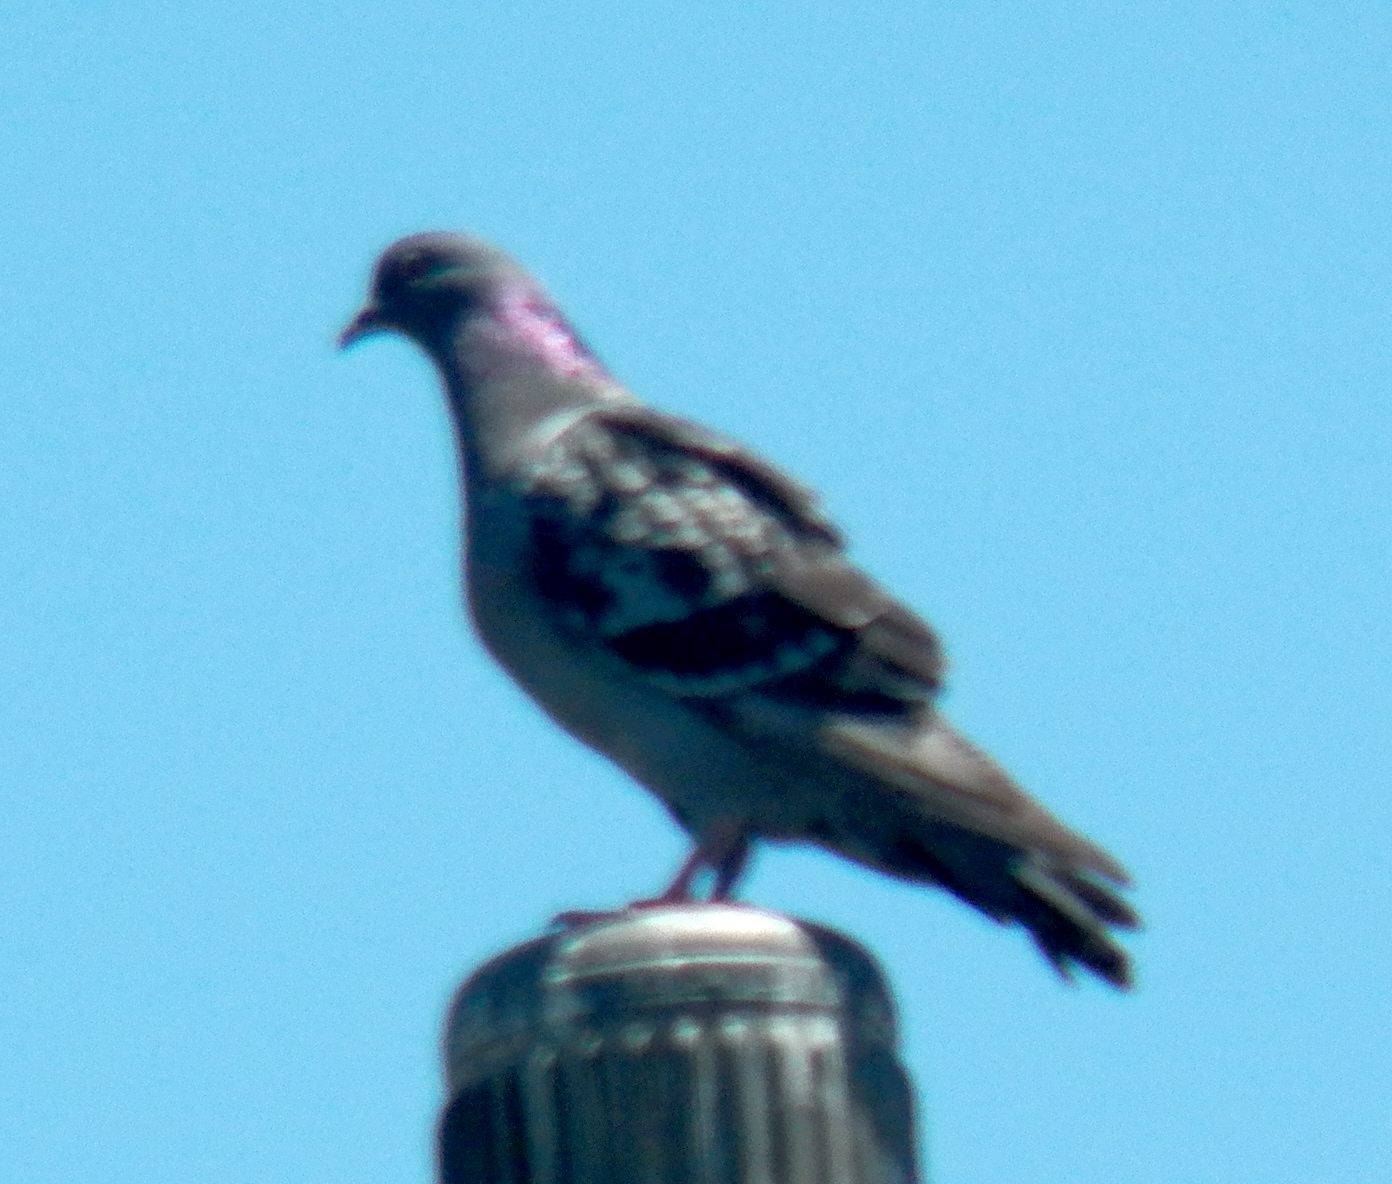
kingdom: Animalia
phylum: Chordata
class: Aves
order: Columbiformes
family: Columbidae
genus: Columba
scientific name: Columba livia
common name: Rock pigeon
